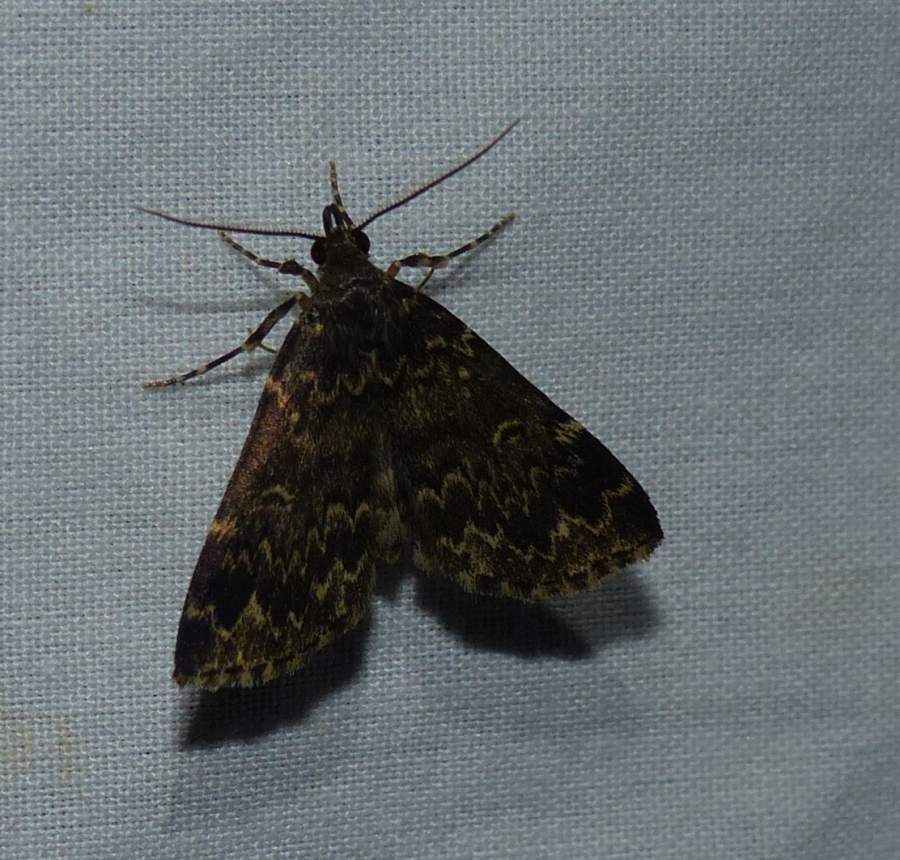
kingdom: Animalia
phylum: Arthropoda
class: Insecta
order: Lepidoptera
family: Erebidae
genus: Idia
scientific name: Idia lubricalis
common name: Twin-striped tabby
